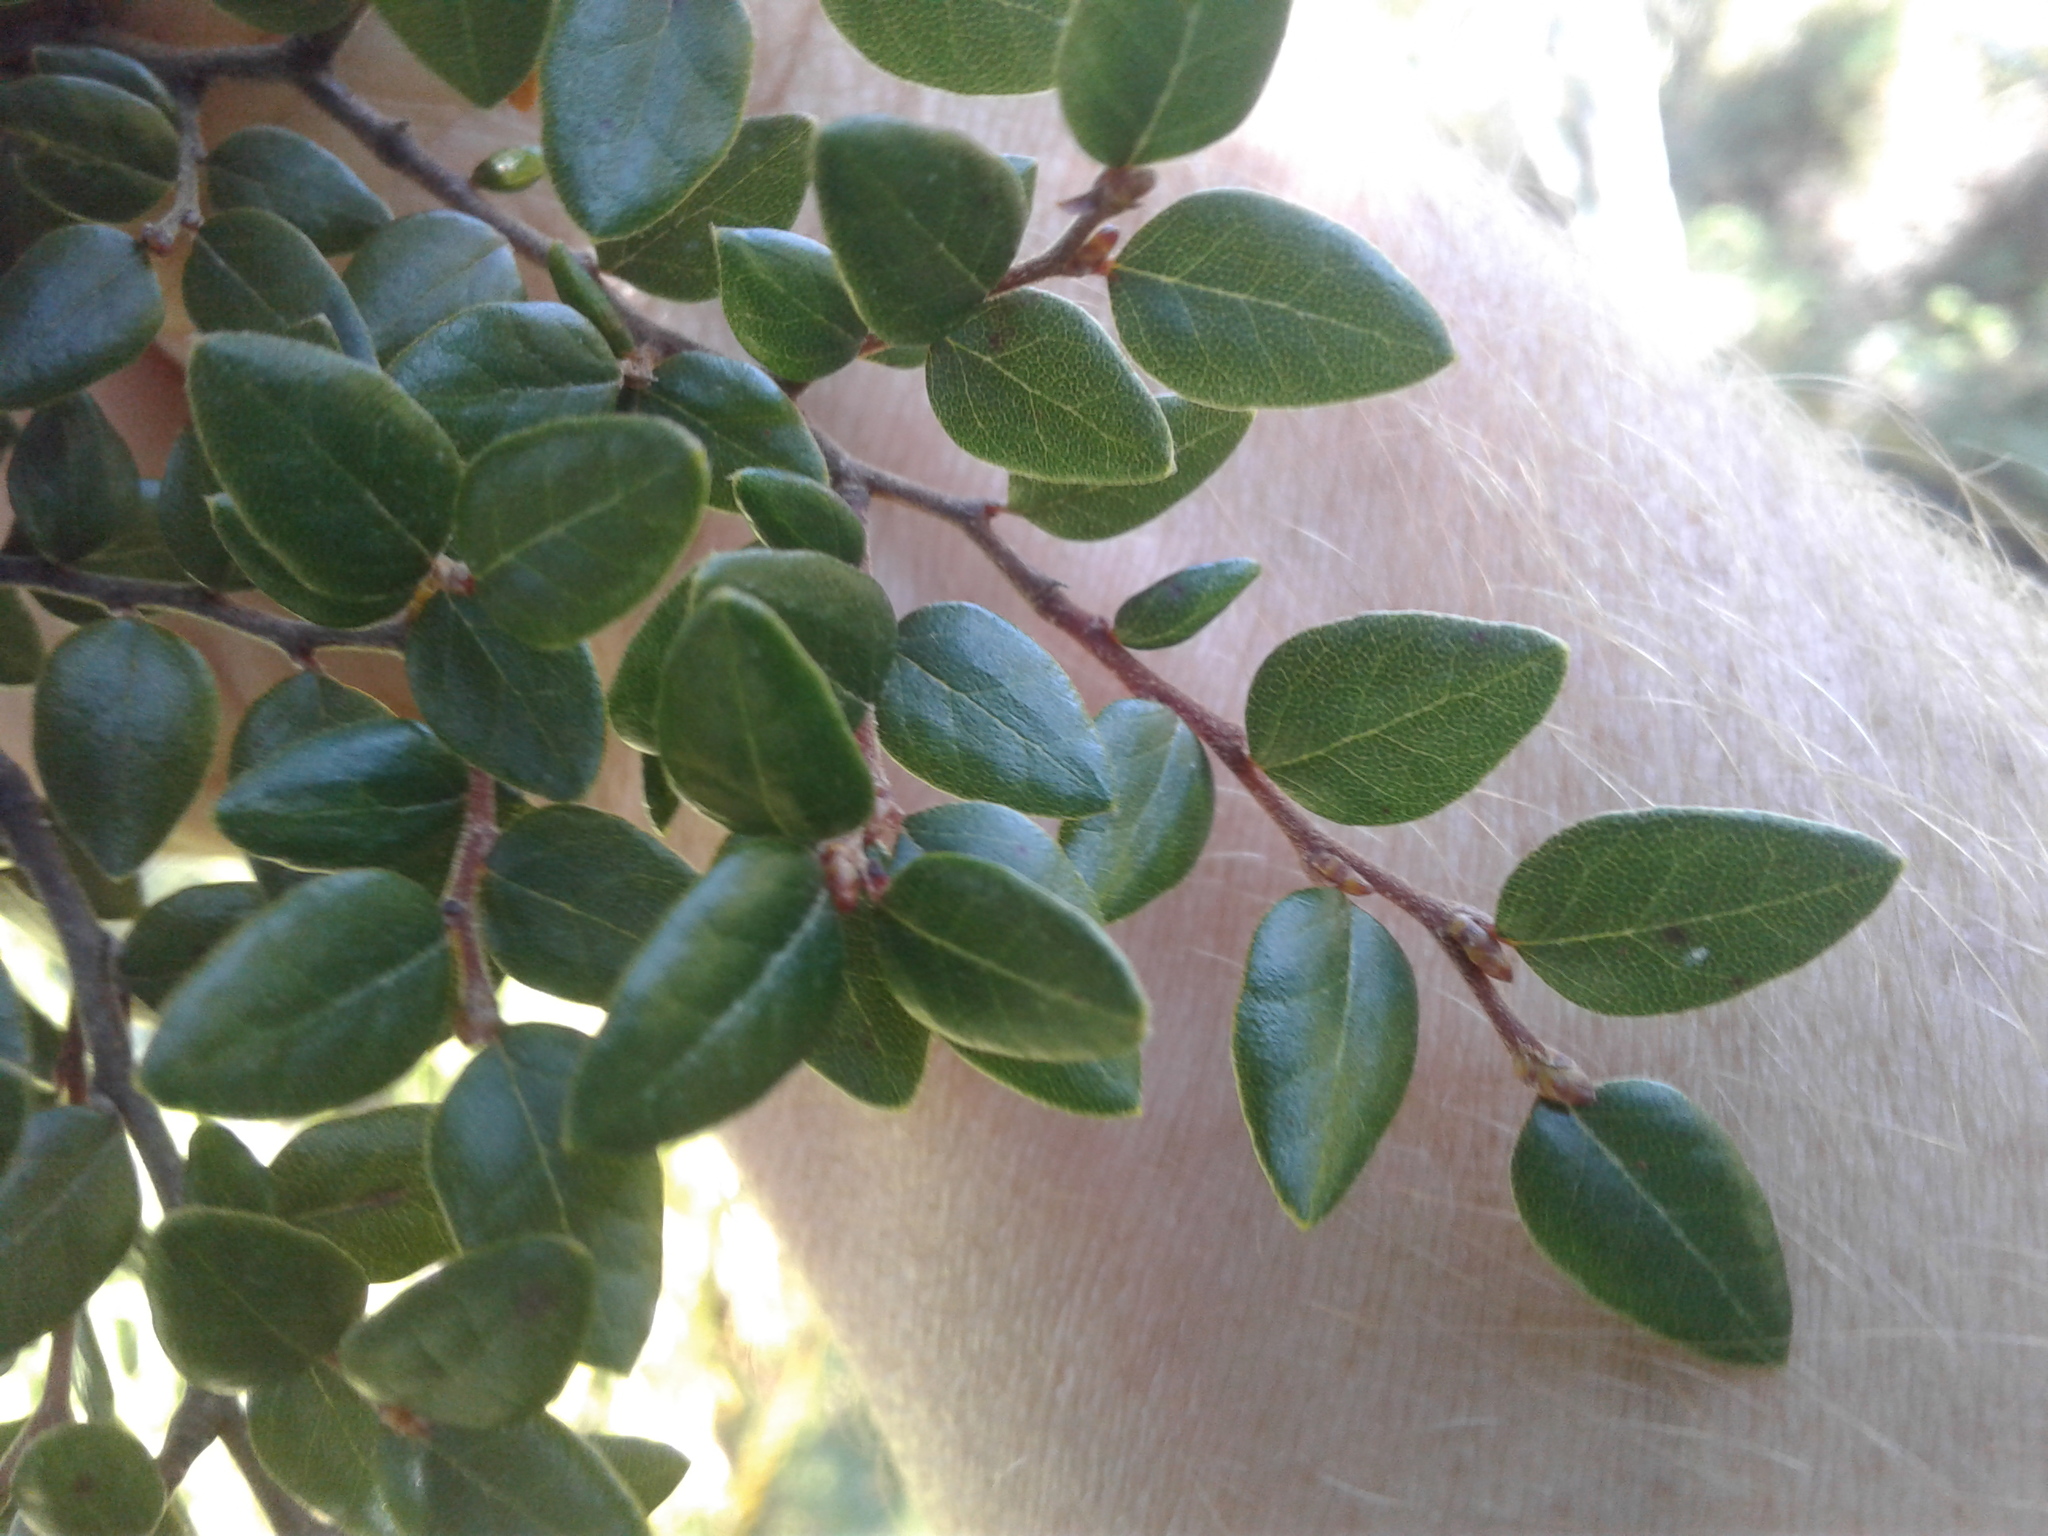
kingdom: Plantae
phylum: Tracheophyta
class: Magnoliopsida
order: Fagales
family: Nothofagaceae
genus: Nothofagus
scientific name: Nothofagus cliffortioides
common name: Mountain beech
